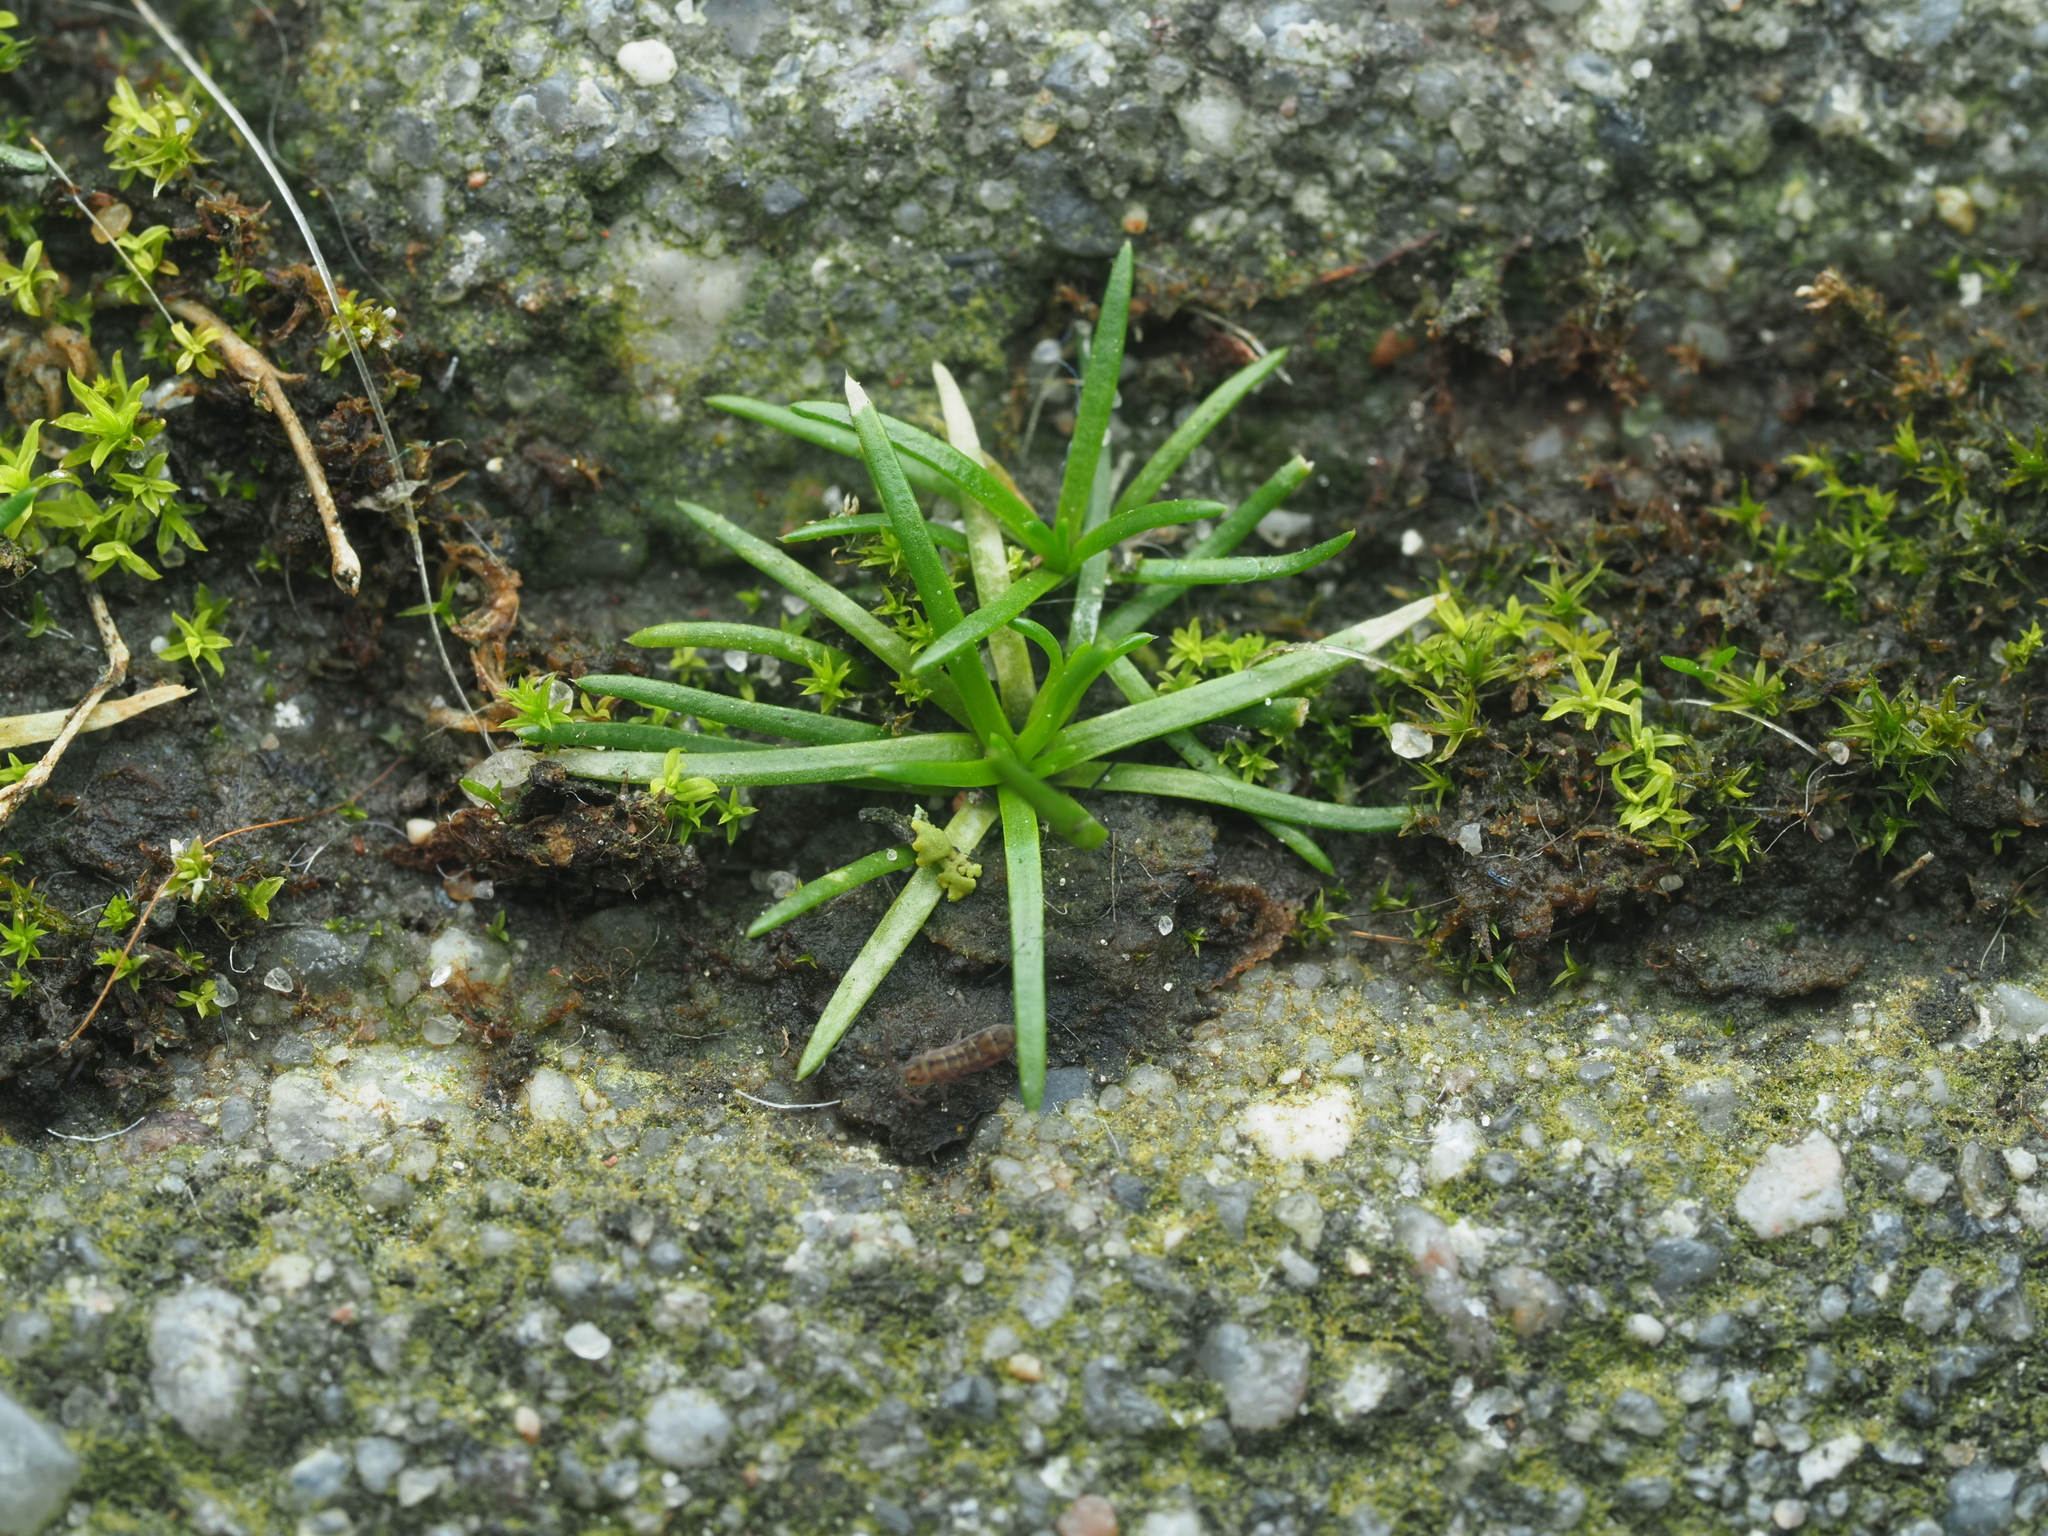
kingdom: Plantae
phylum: Tracheophyta
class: Magnoliopsida
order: Caryophyllales
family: Caryophyllaceae
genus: Sagina
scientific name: Sagina procumbens
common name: Procumbent pearlwort
